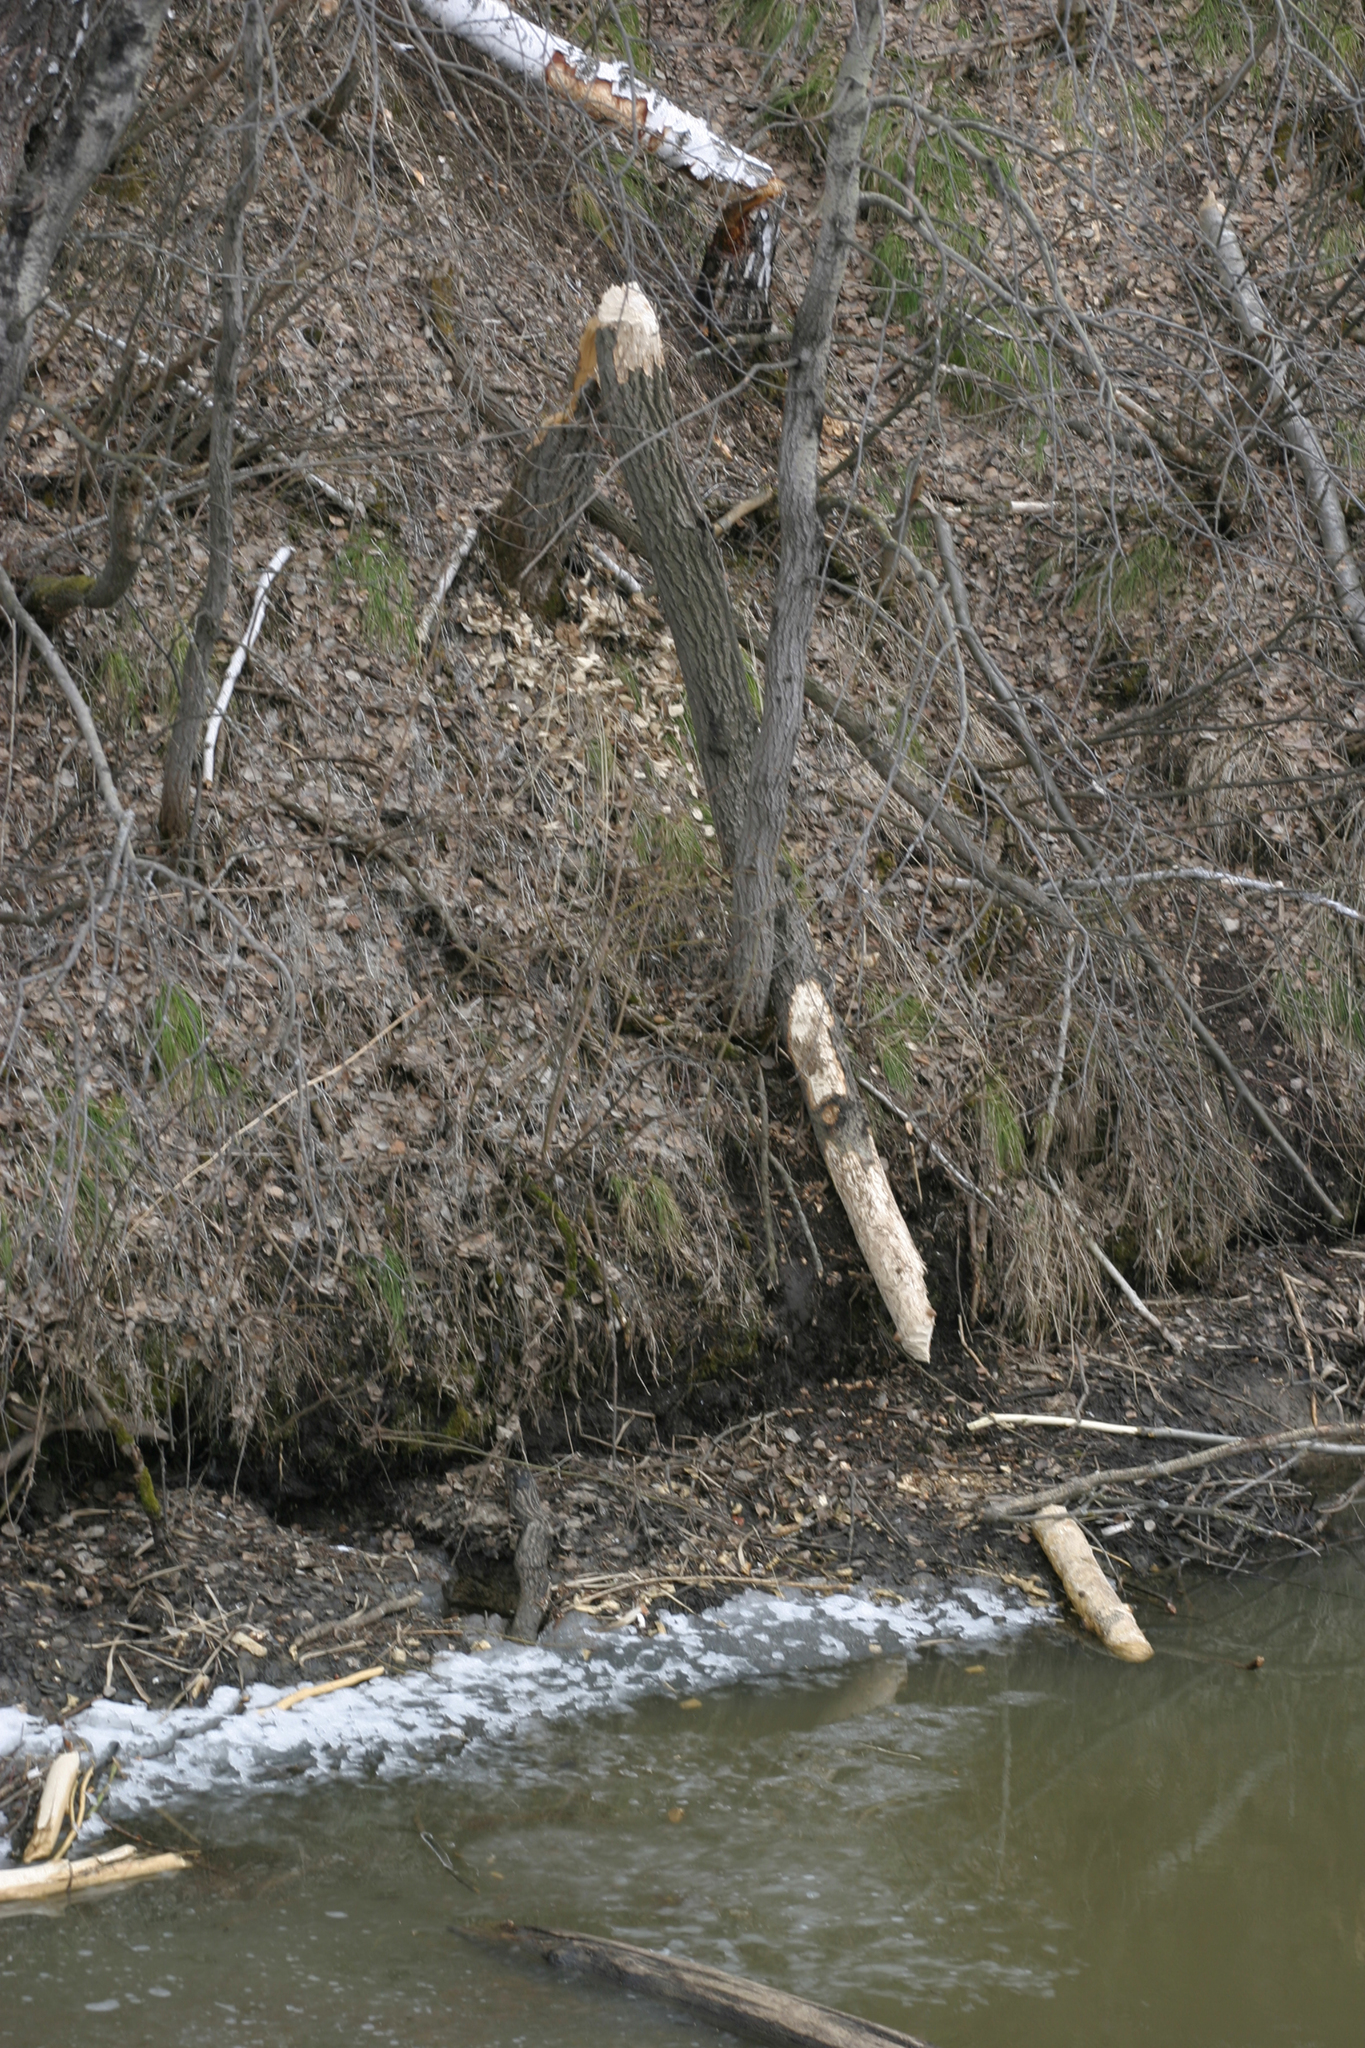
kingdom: Animalia
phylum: Chordata
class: Mammalia
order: Rodentia
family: Castoridae
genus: Castor
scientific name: Castor fiber
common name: Eurasian beaver
